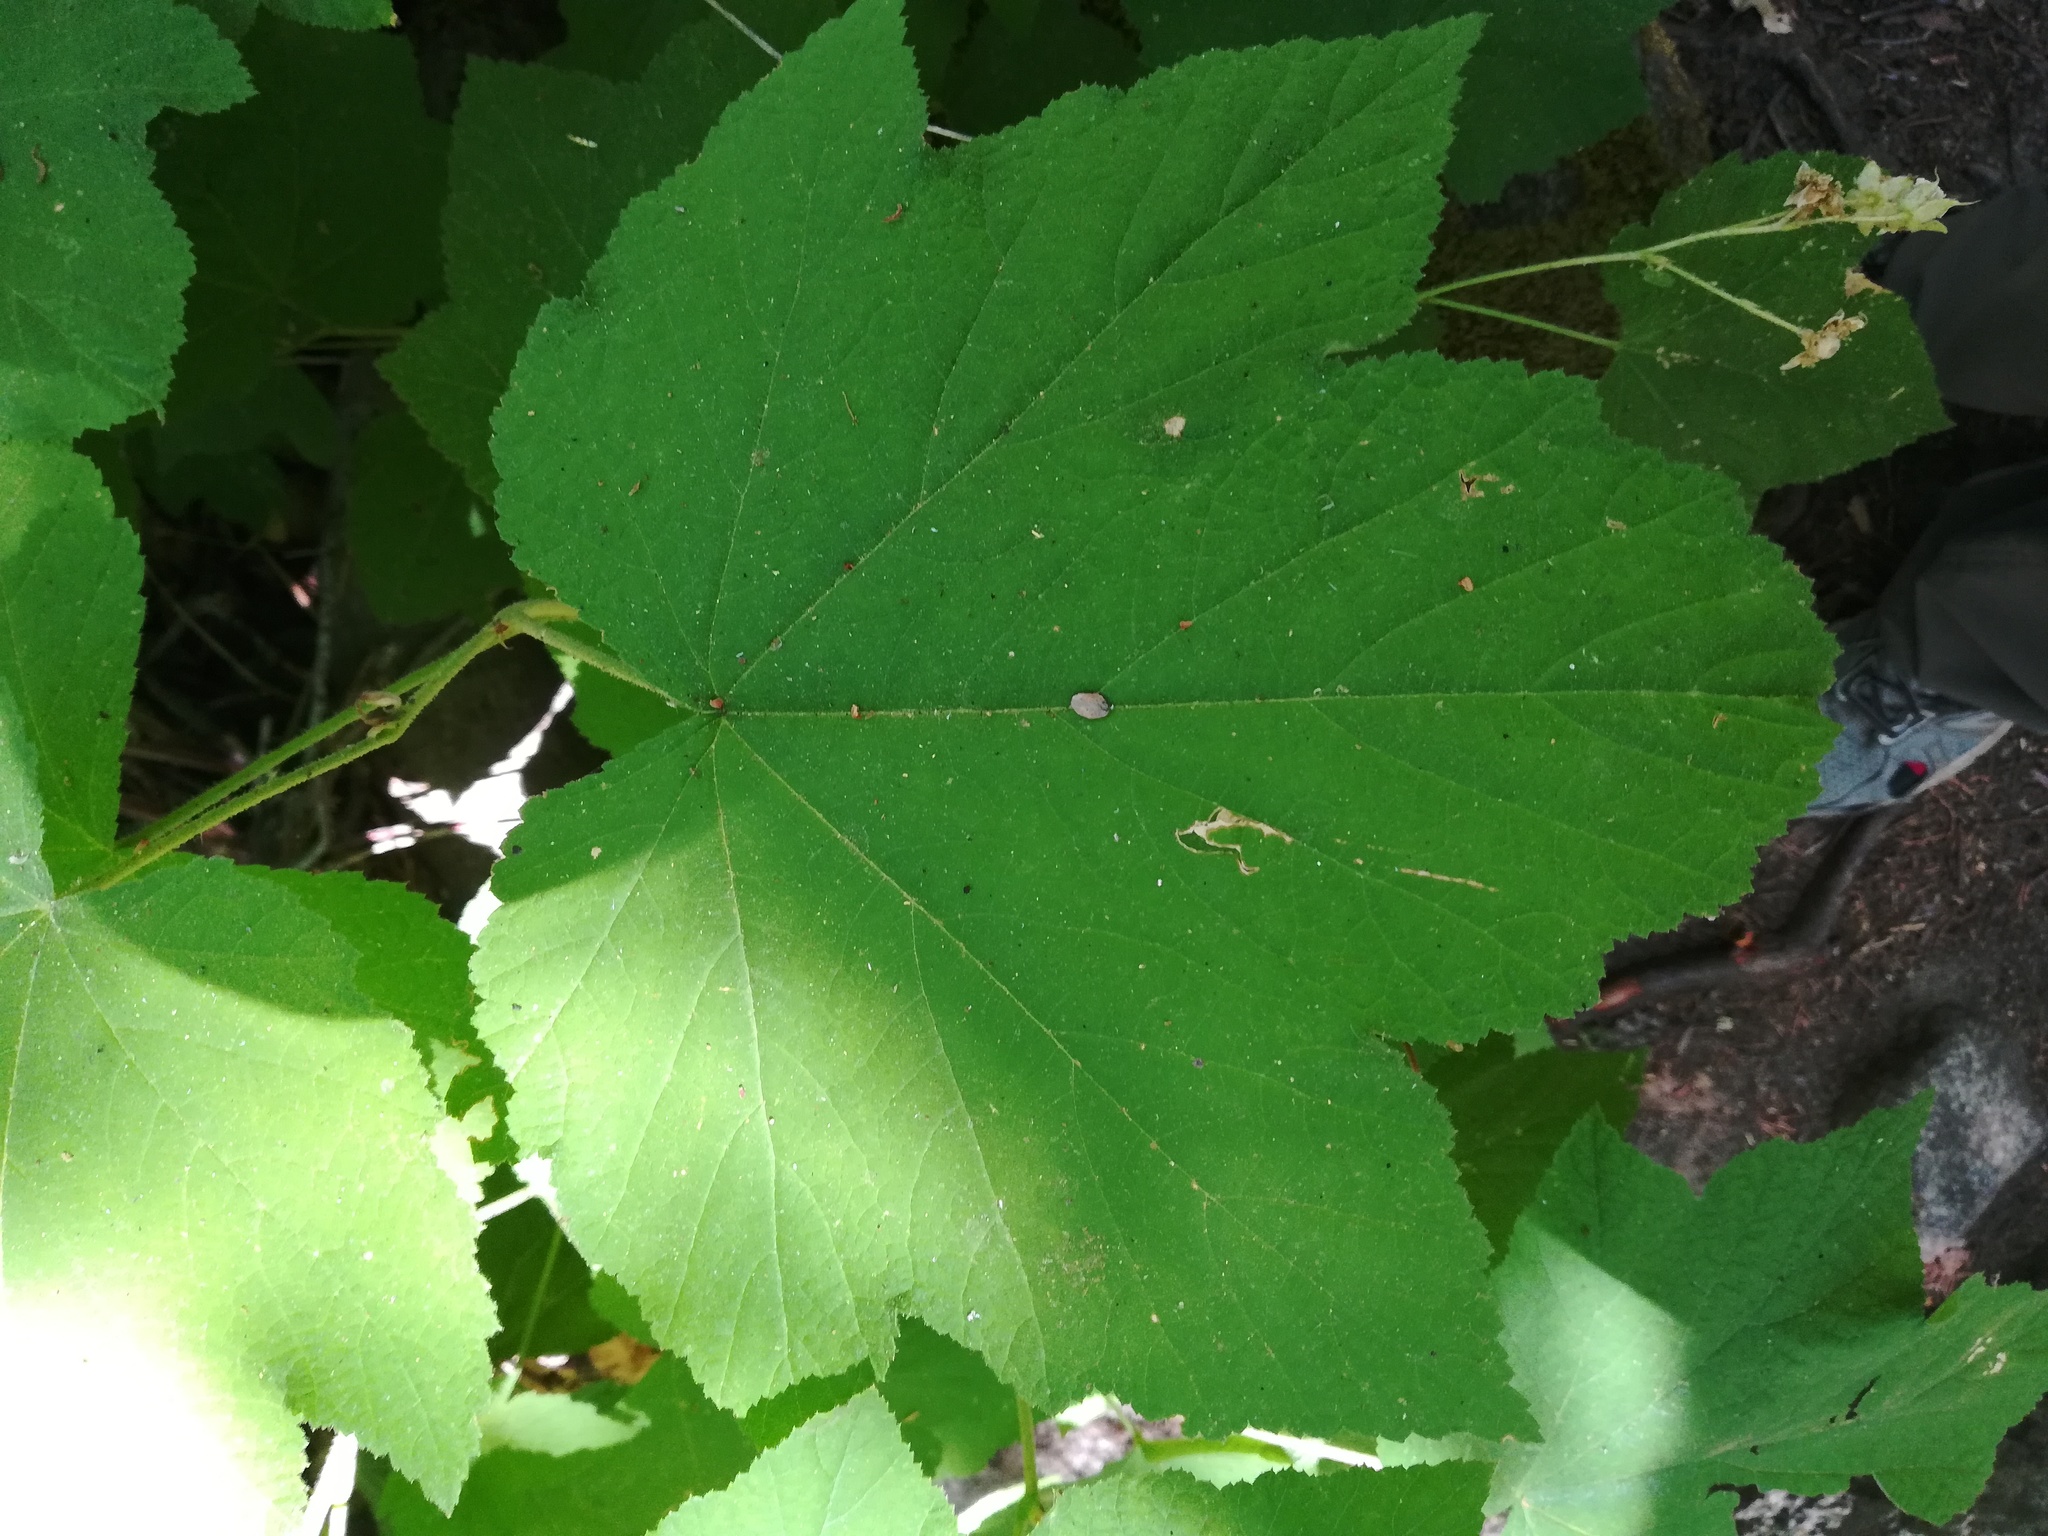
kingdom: Plantae
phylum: Tracheophyta
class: Magnoliopsida
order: Rosales
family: Rosaceae
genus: Rubus
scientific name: Rubus parviflorus
